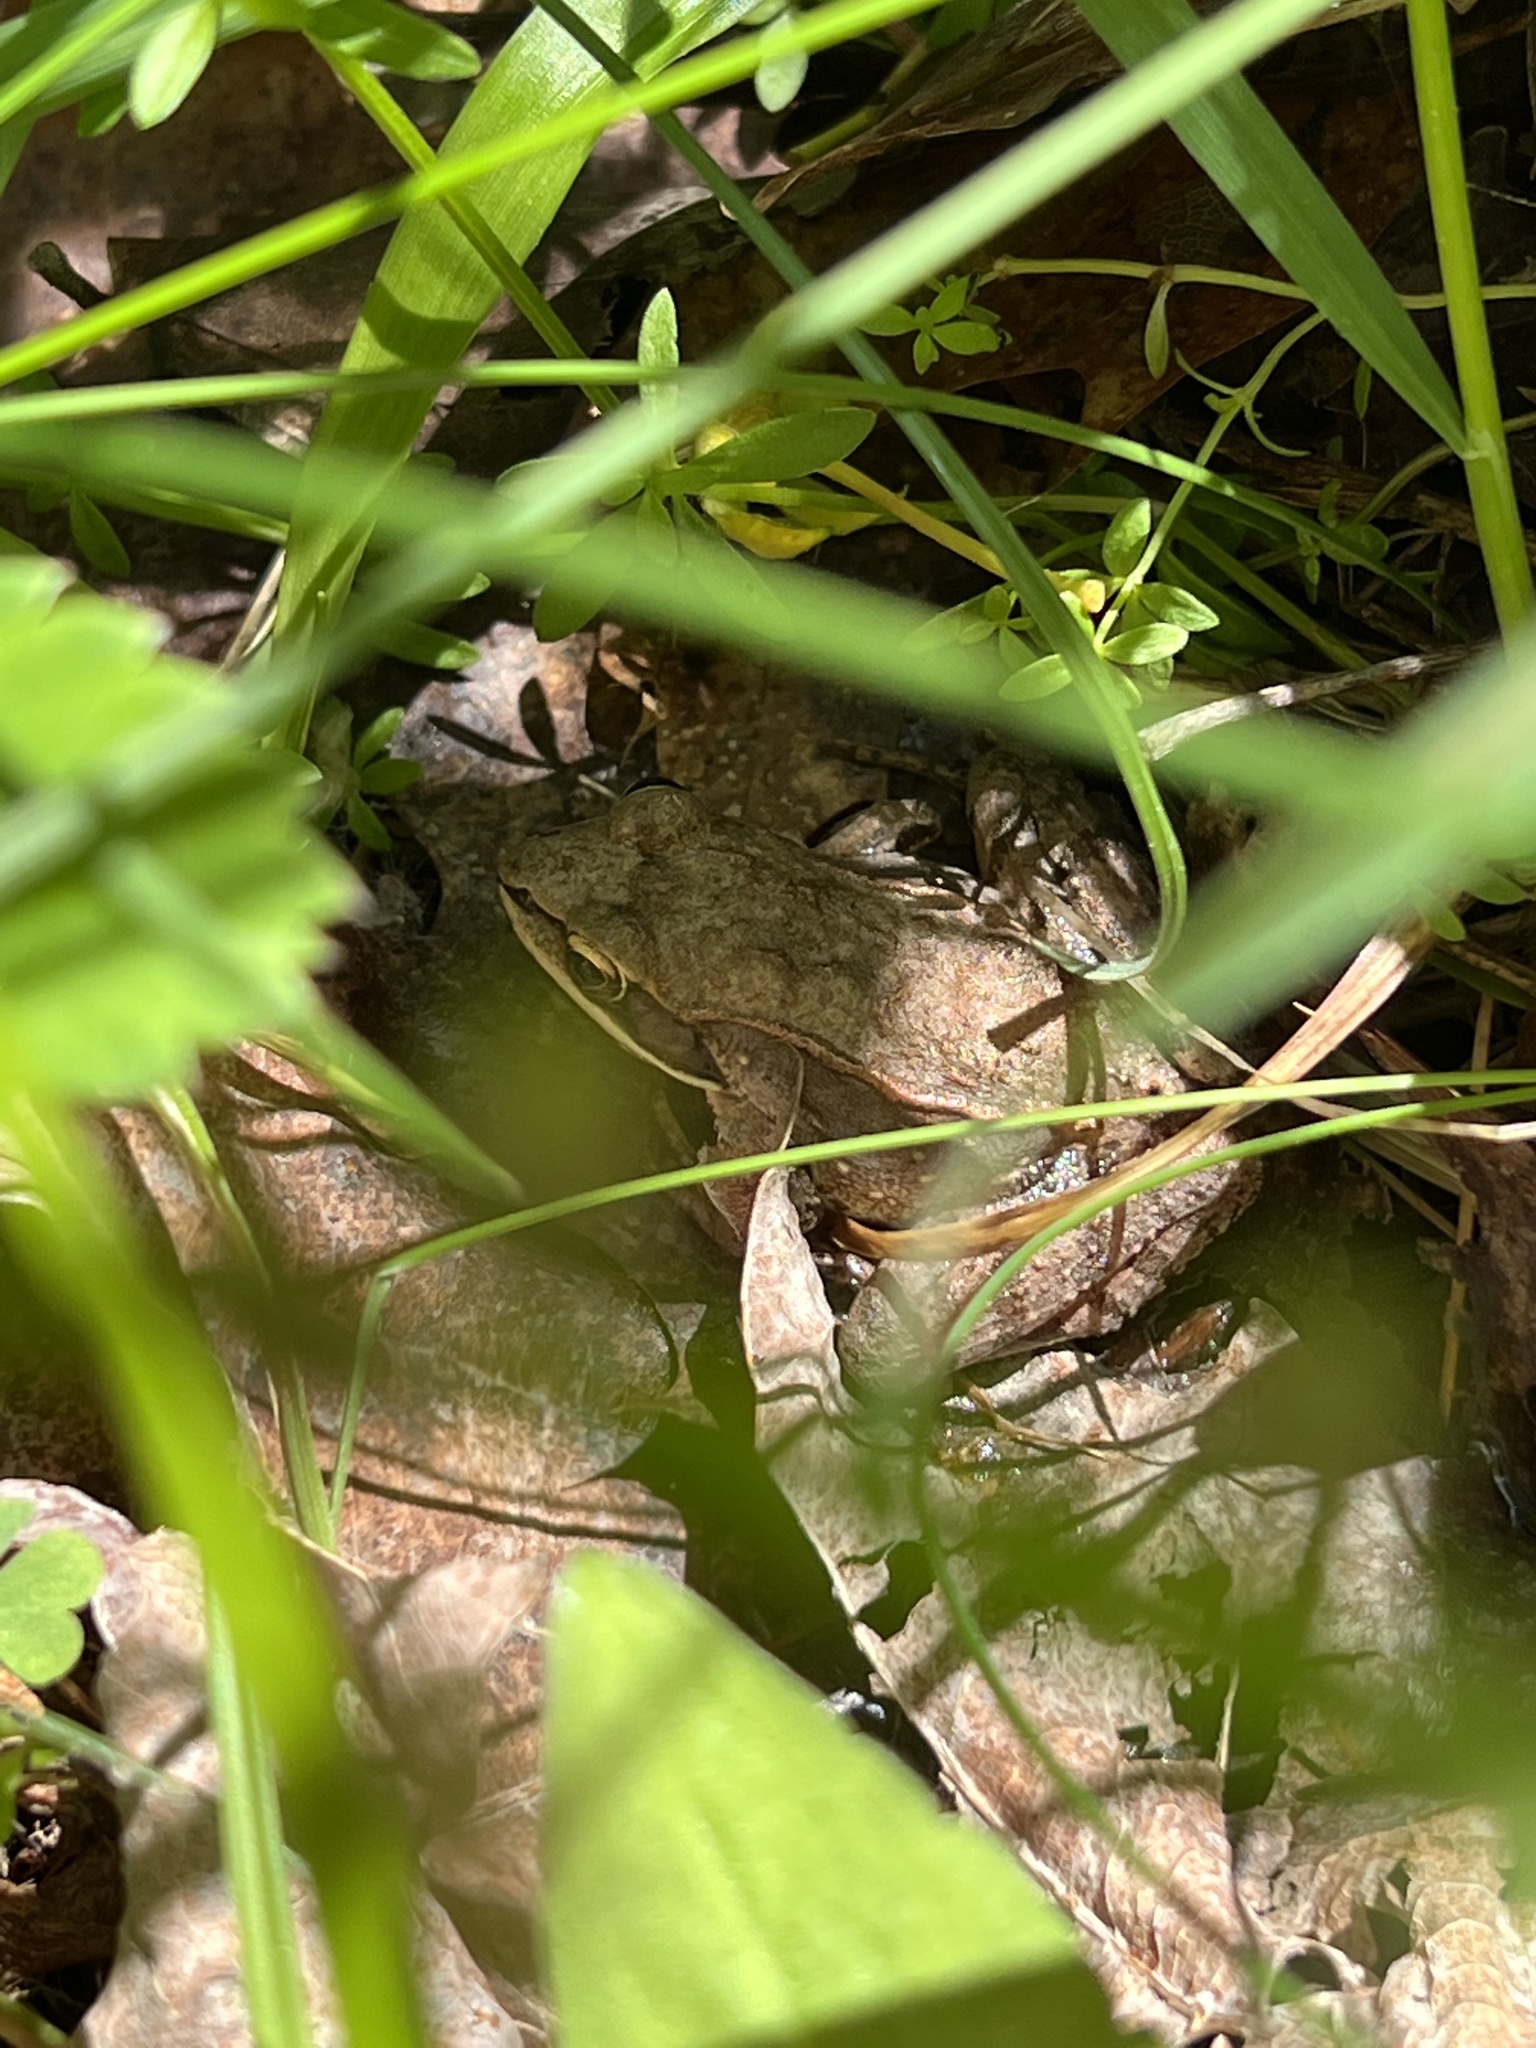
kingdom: Animalia
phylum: Chordata
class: Amphibia
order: Anura
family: Ranidae
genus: Lithobates
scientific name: Lithobates sylvaticus
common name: Wood frog
